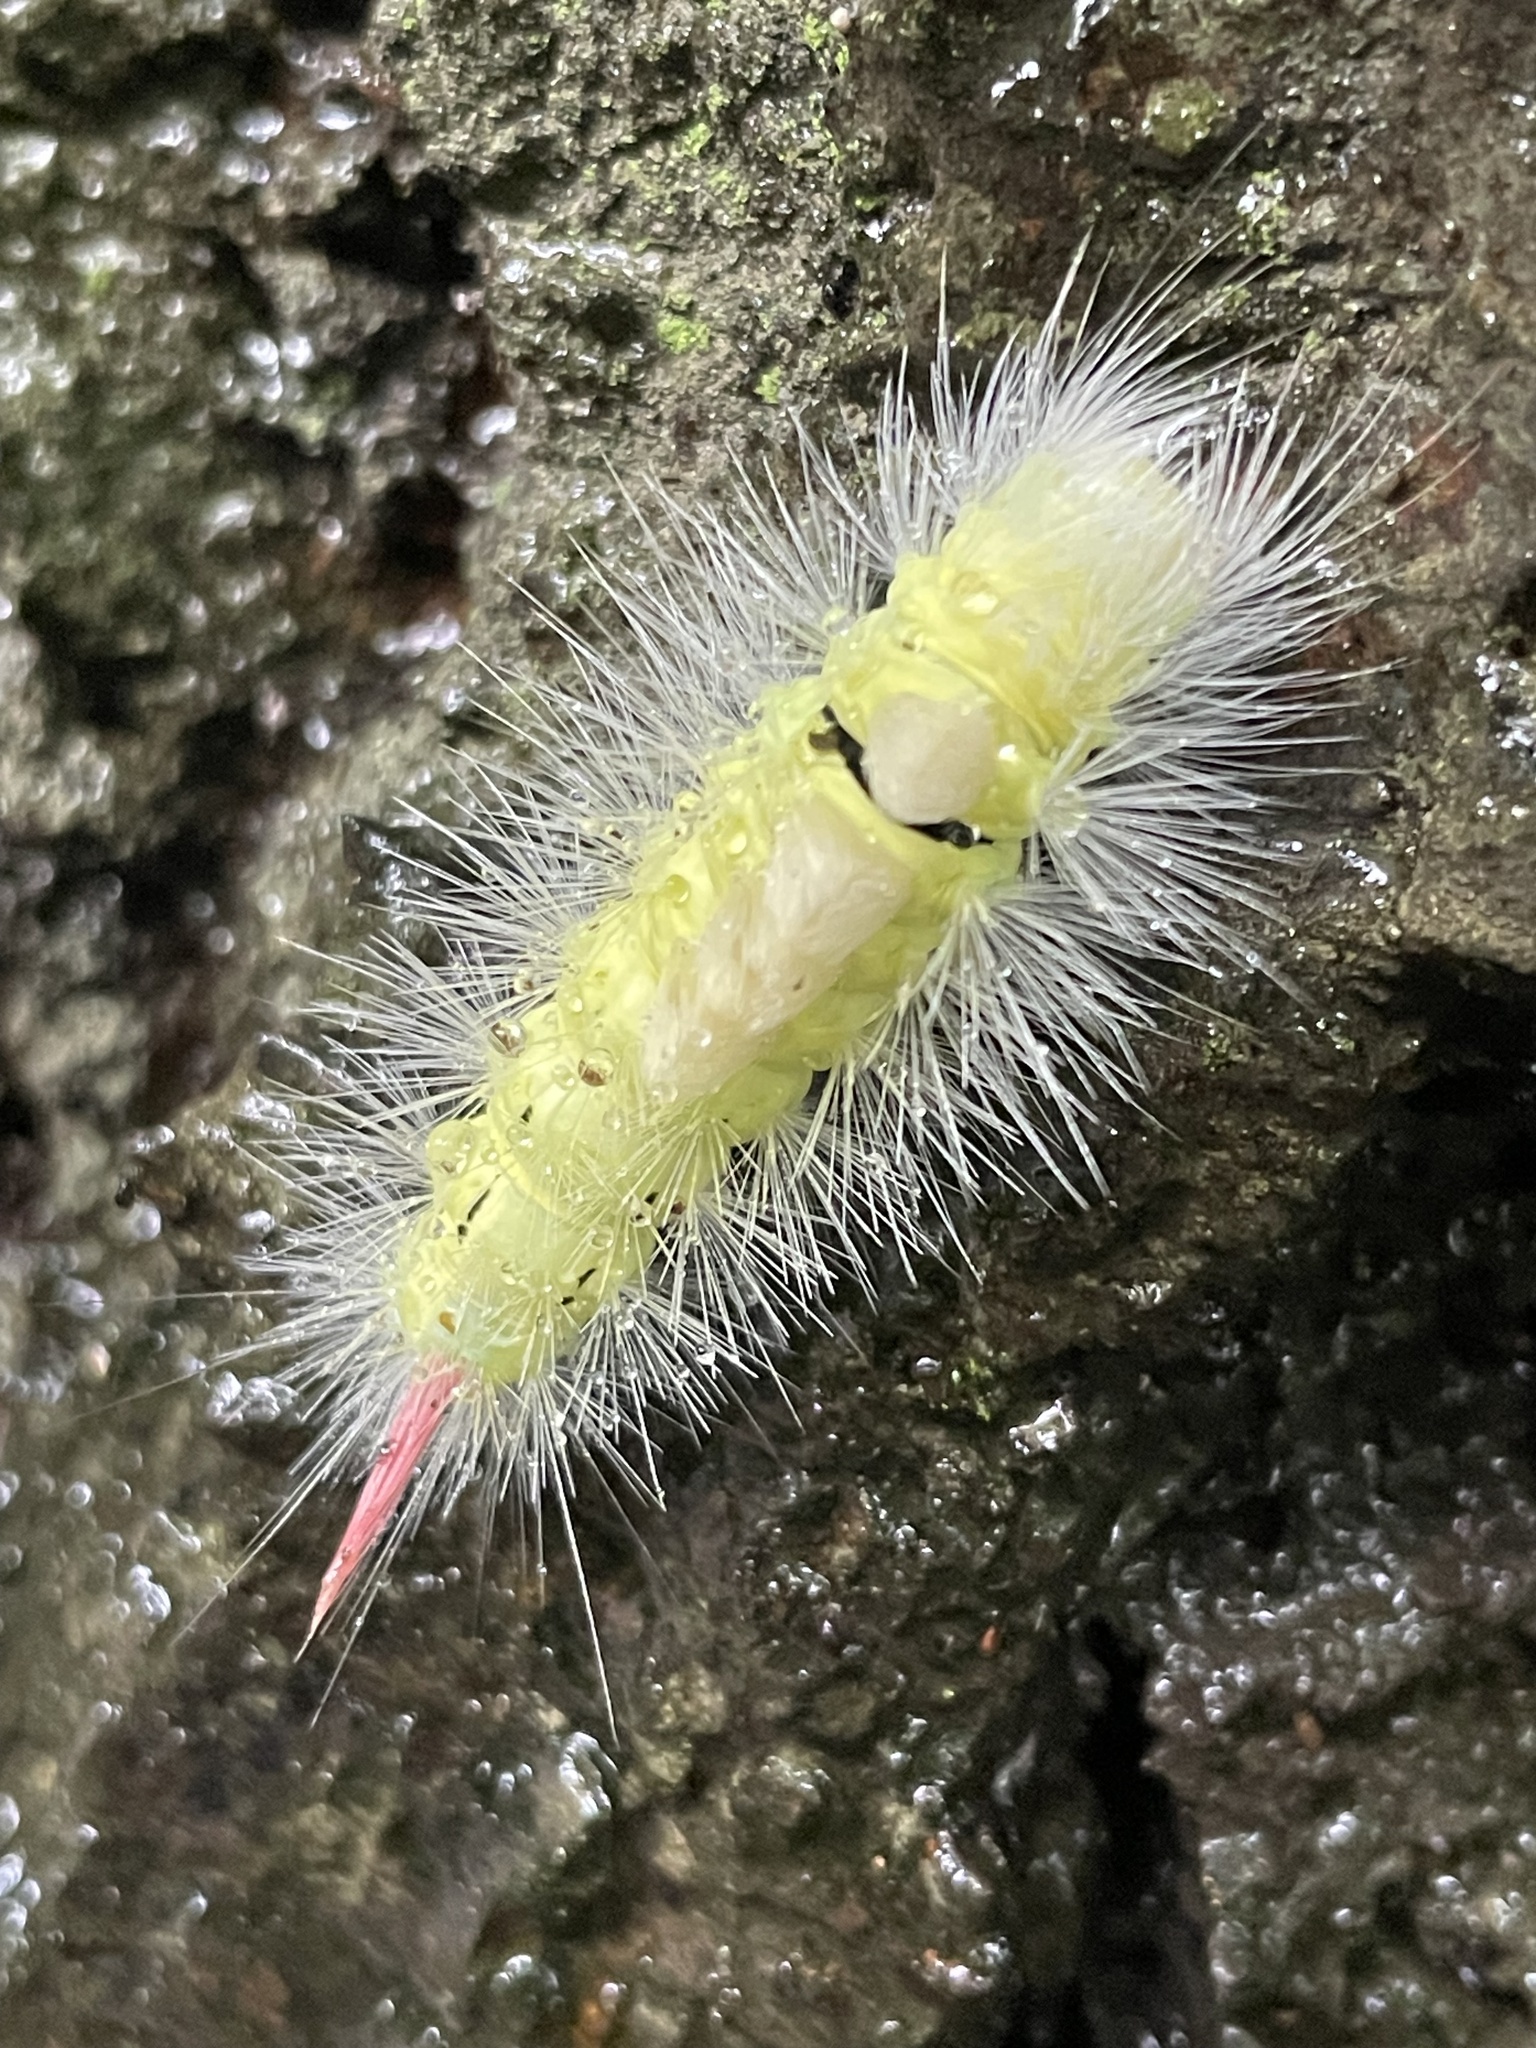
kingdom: Animalia
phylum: Arthropoda
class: Insecta
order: Lepidoptera
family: Erebidae
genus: Calliteara
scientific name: Calliteara pudibunda
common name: Pale tussock
